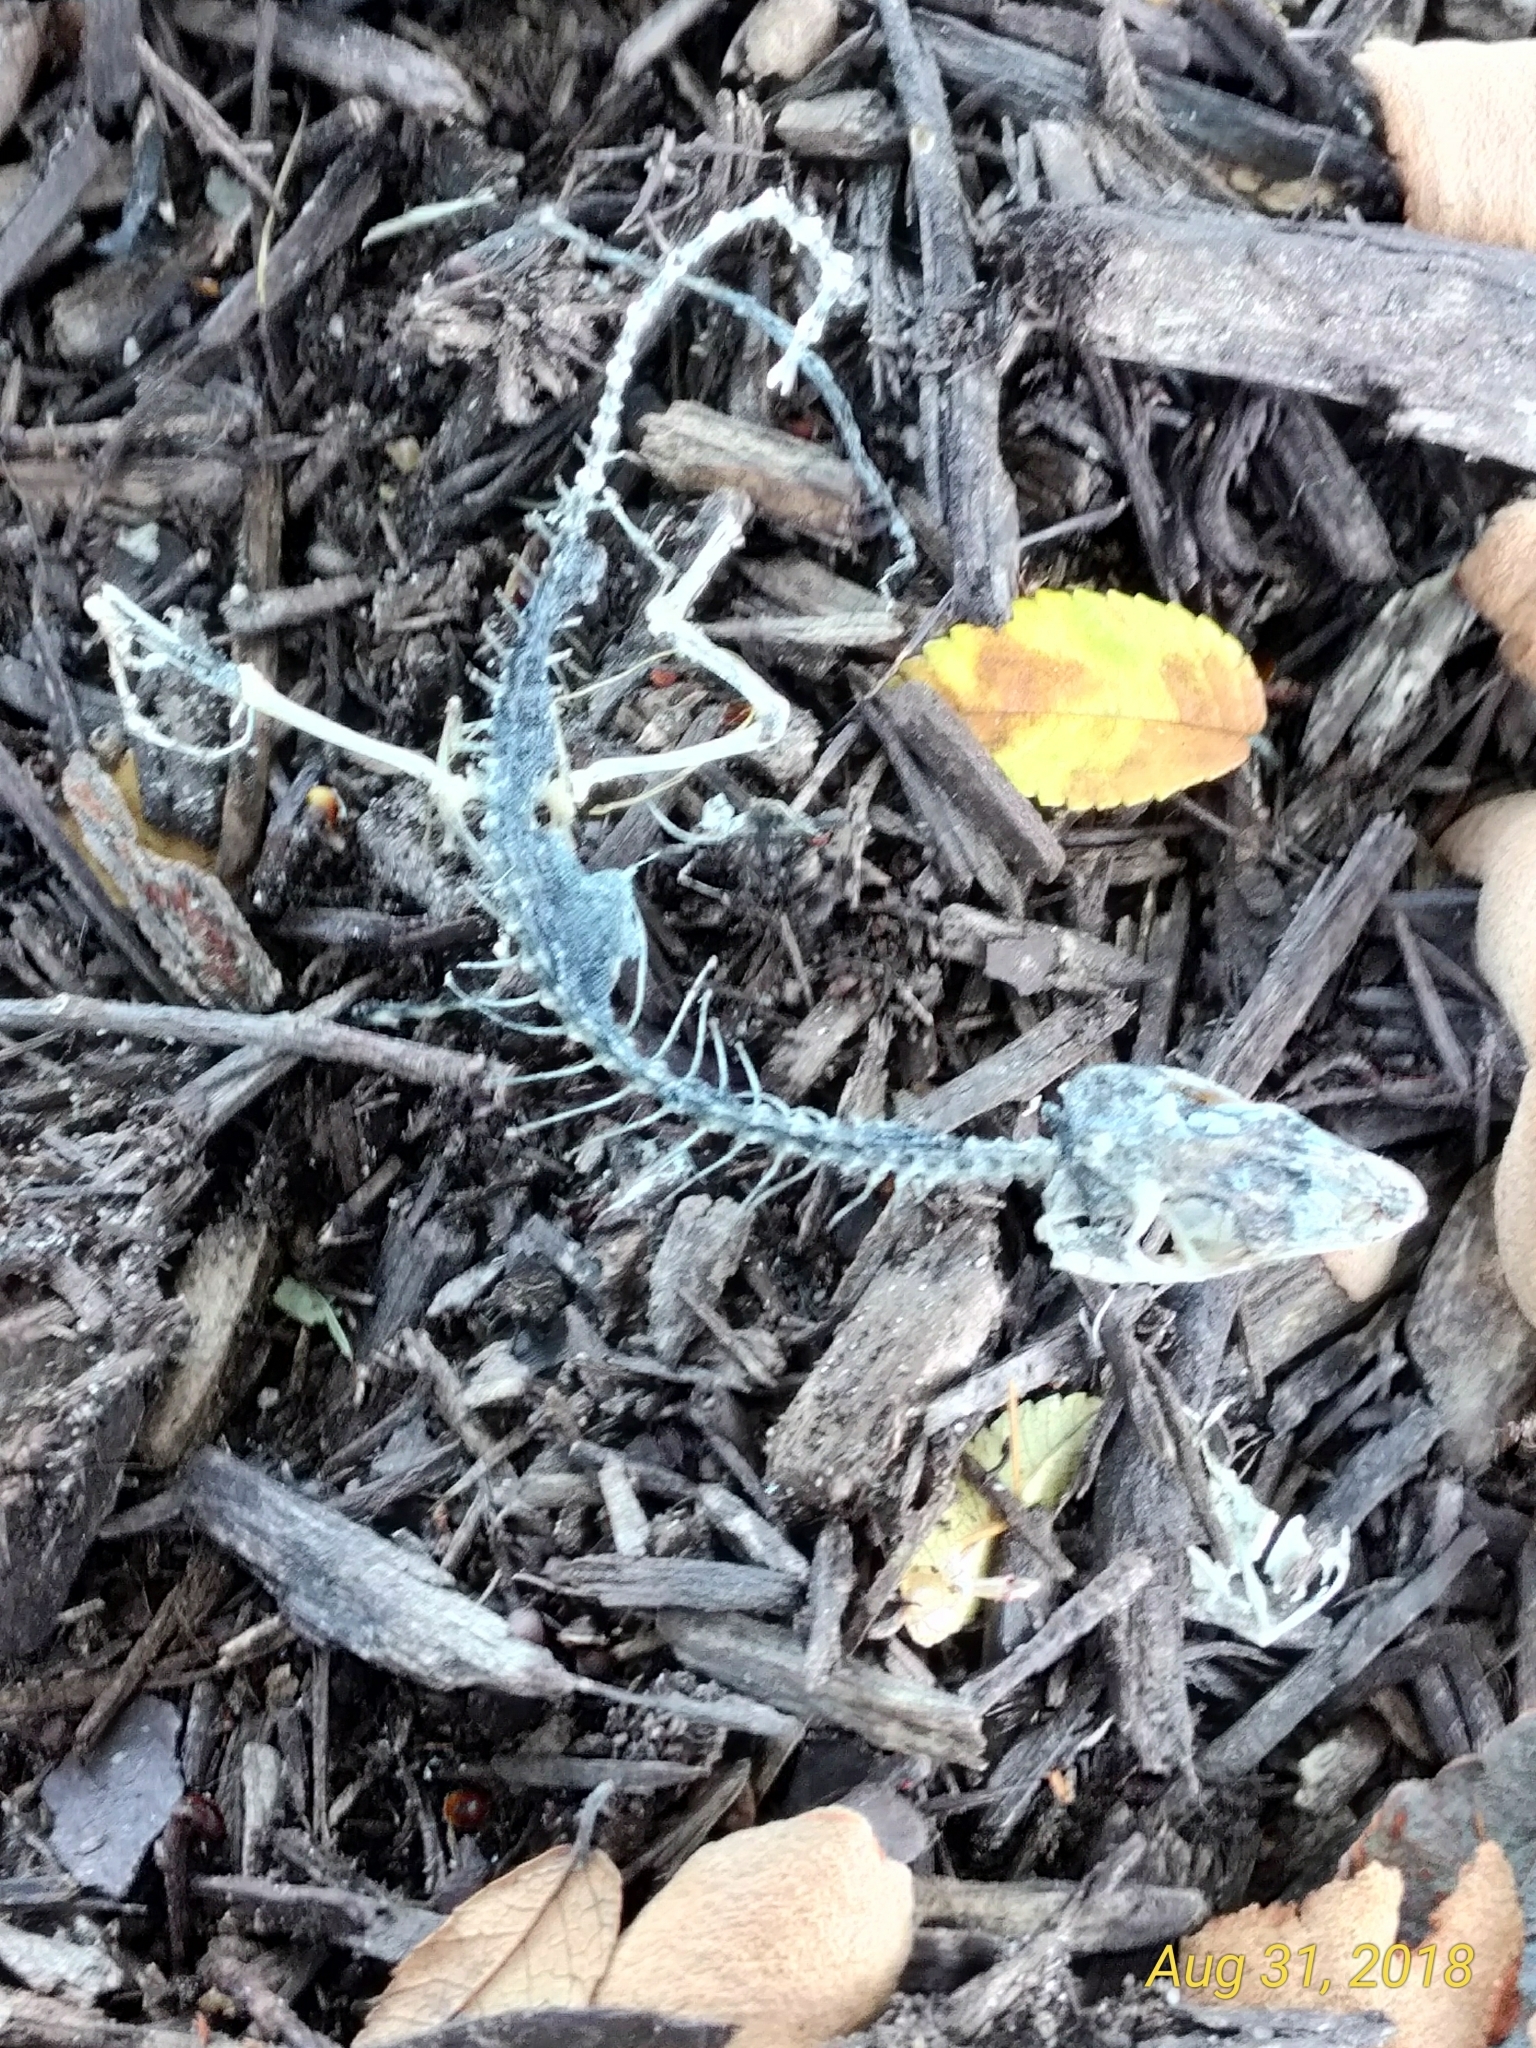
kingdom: Animalia
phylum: Chordata
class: Squamata
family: Dactyloidae
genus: Anolis
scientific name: Anolis carolinensis
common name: Green anole
